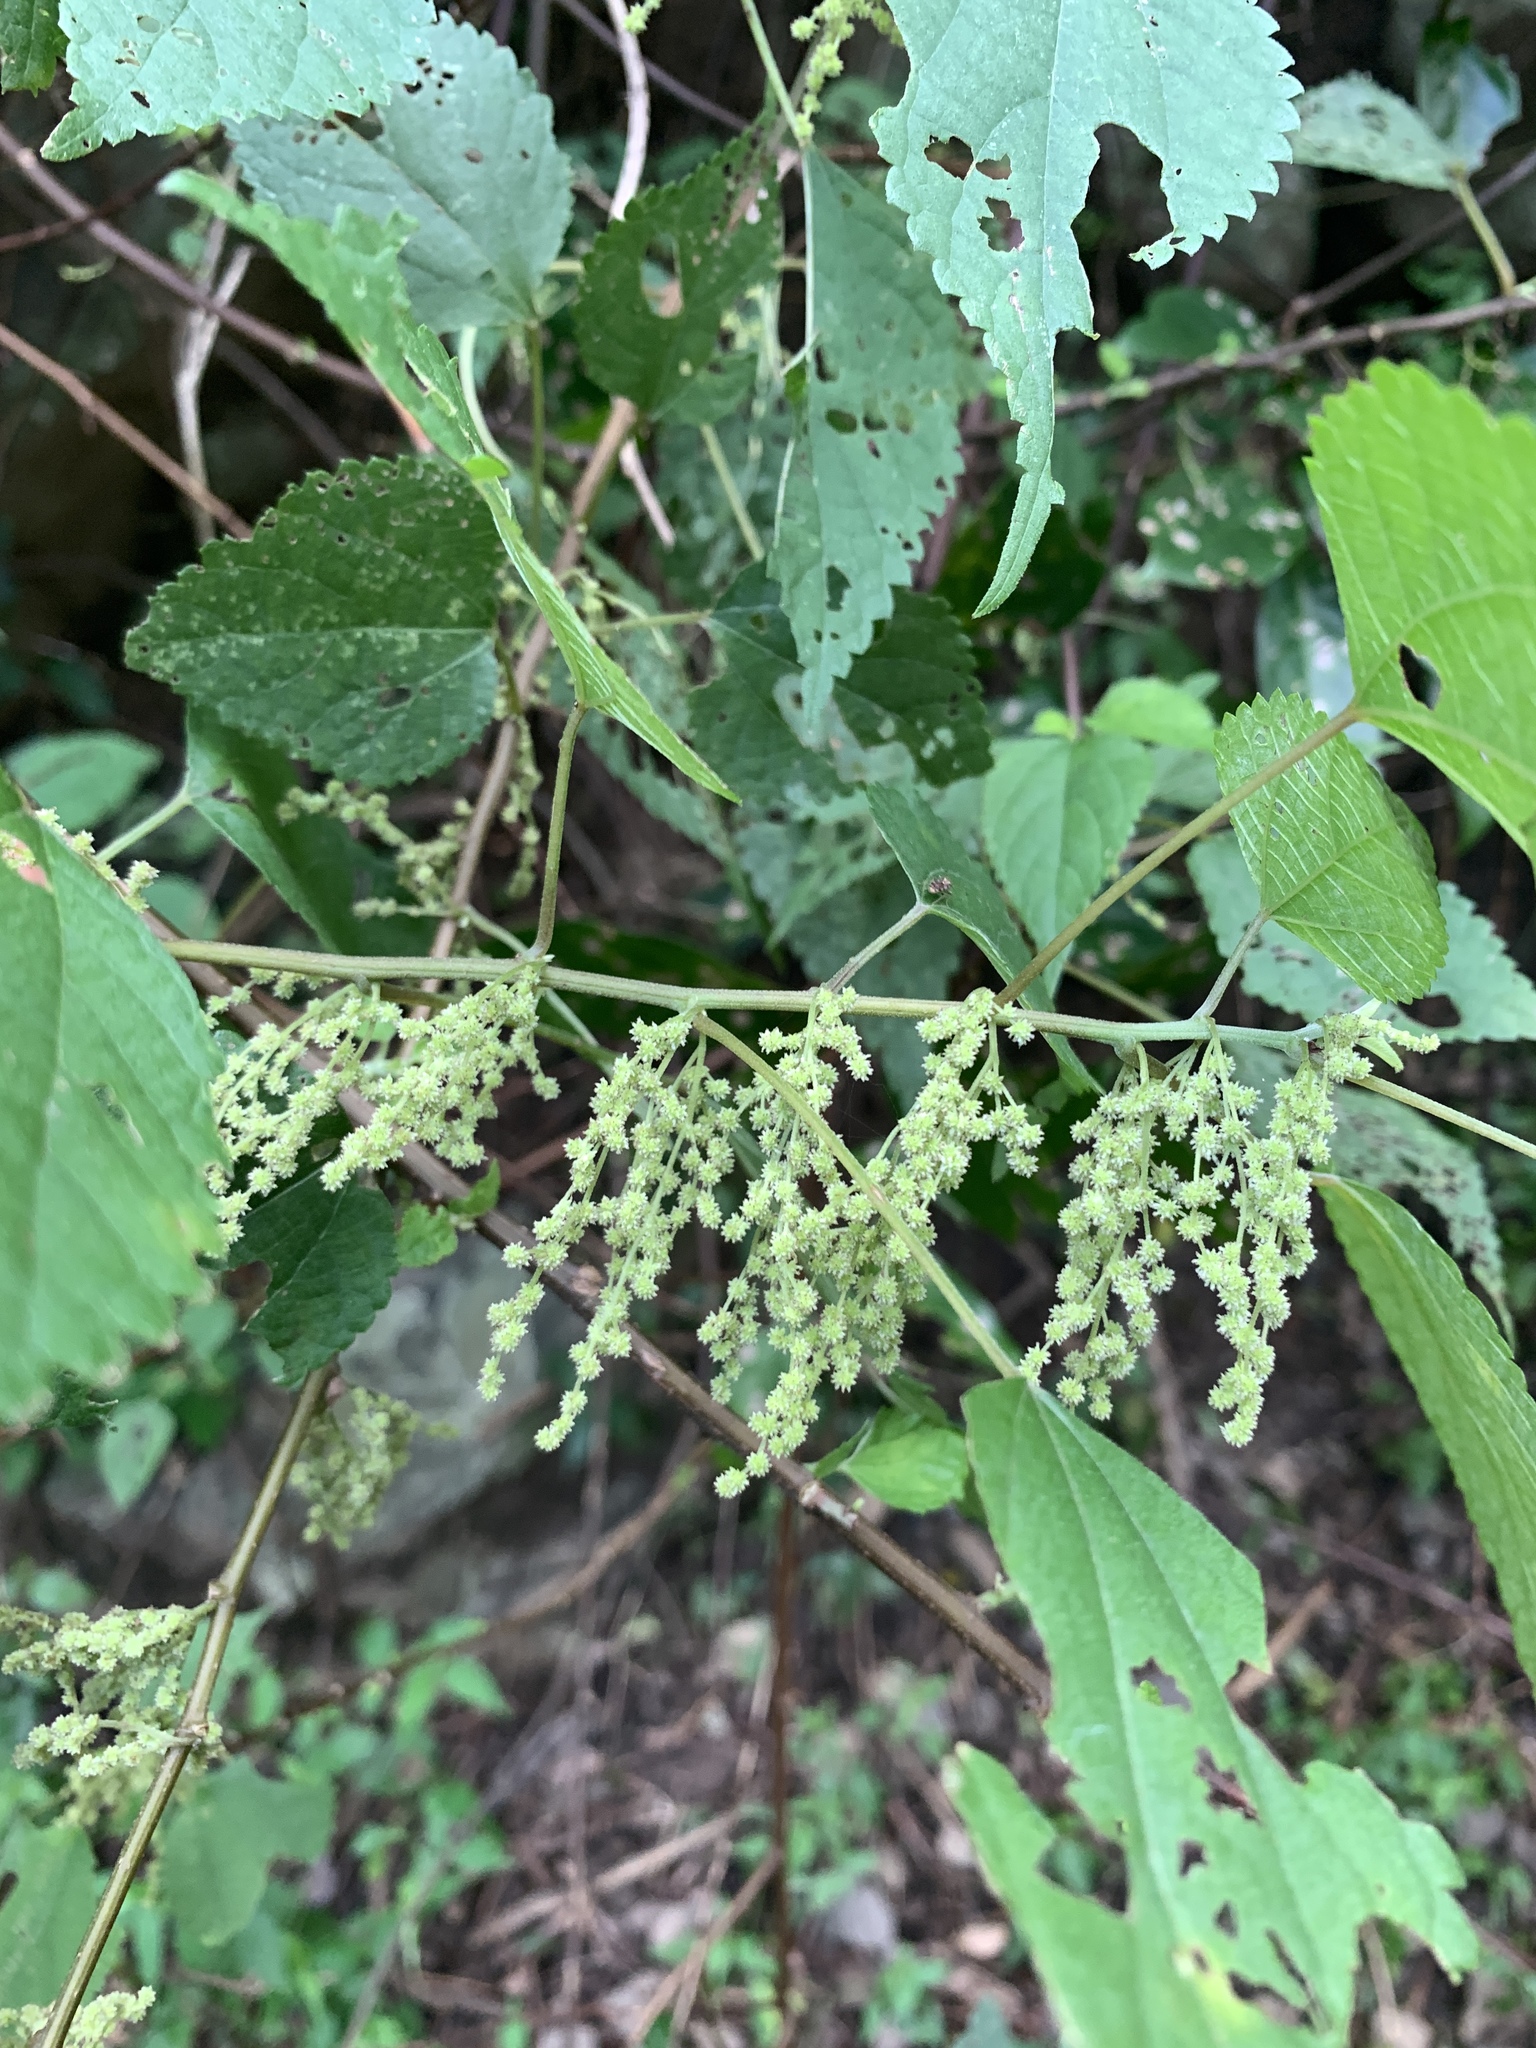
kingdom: Plantae
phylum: Tracheophyta
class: Magnoliopsida
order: Rosales
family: Urticaceae
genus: Boehmeria
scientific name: Boehmeria nivea
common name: Ramie chinese grass
